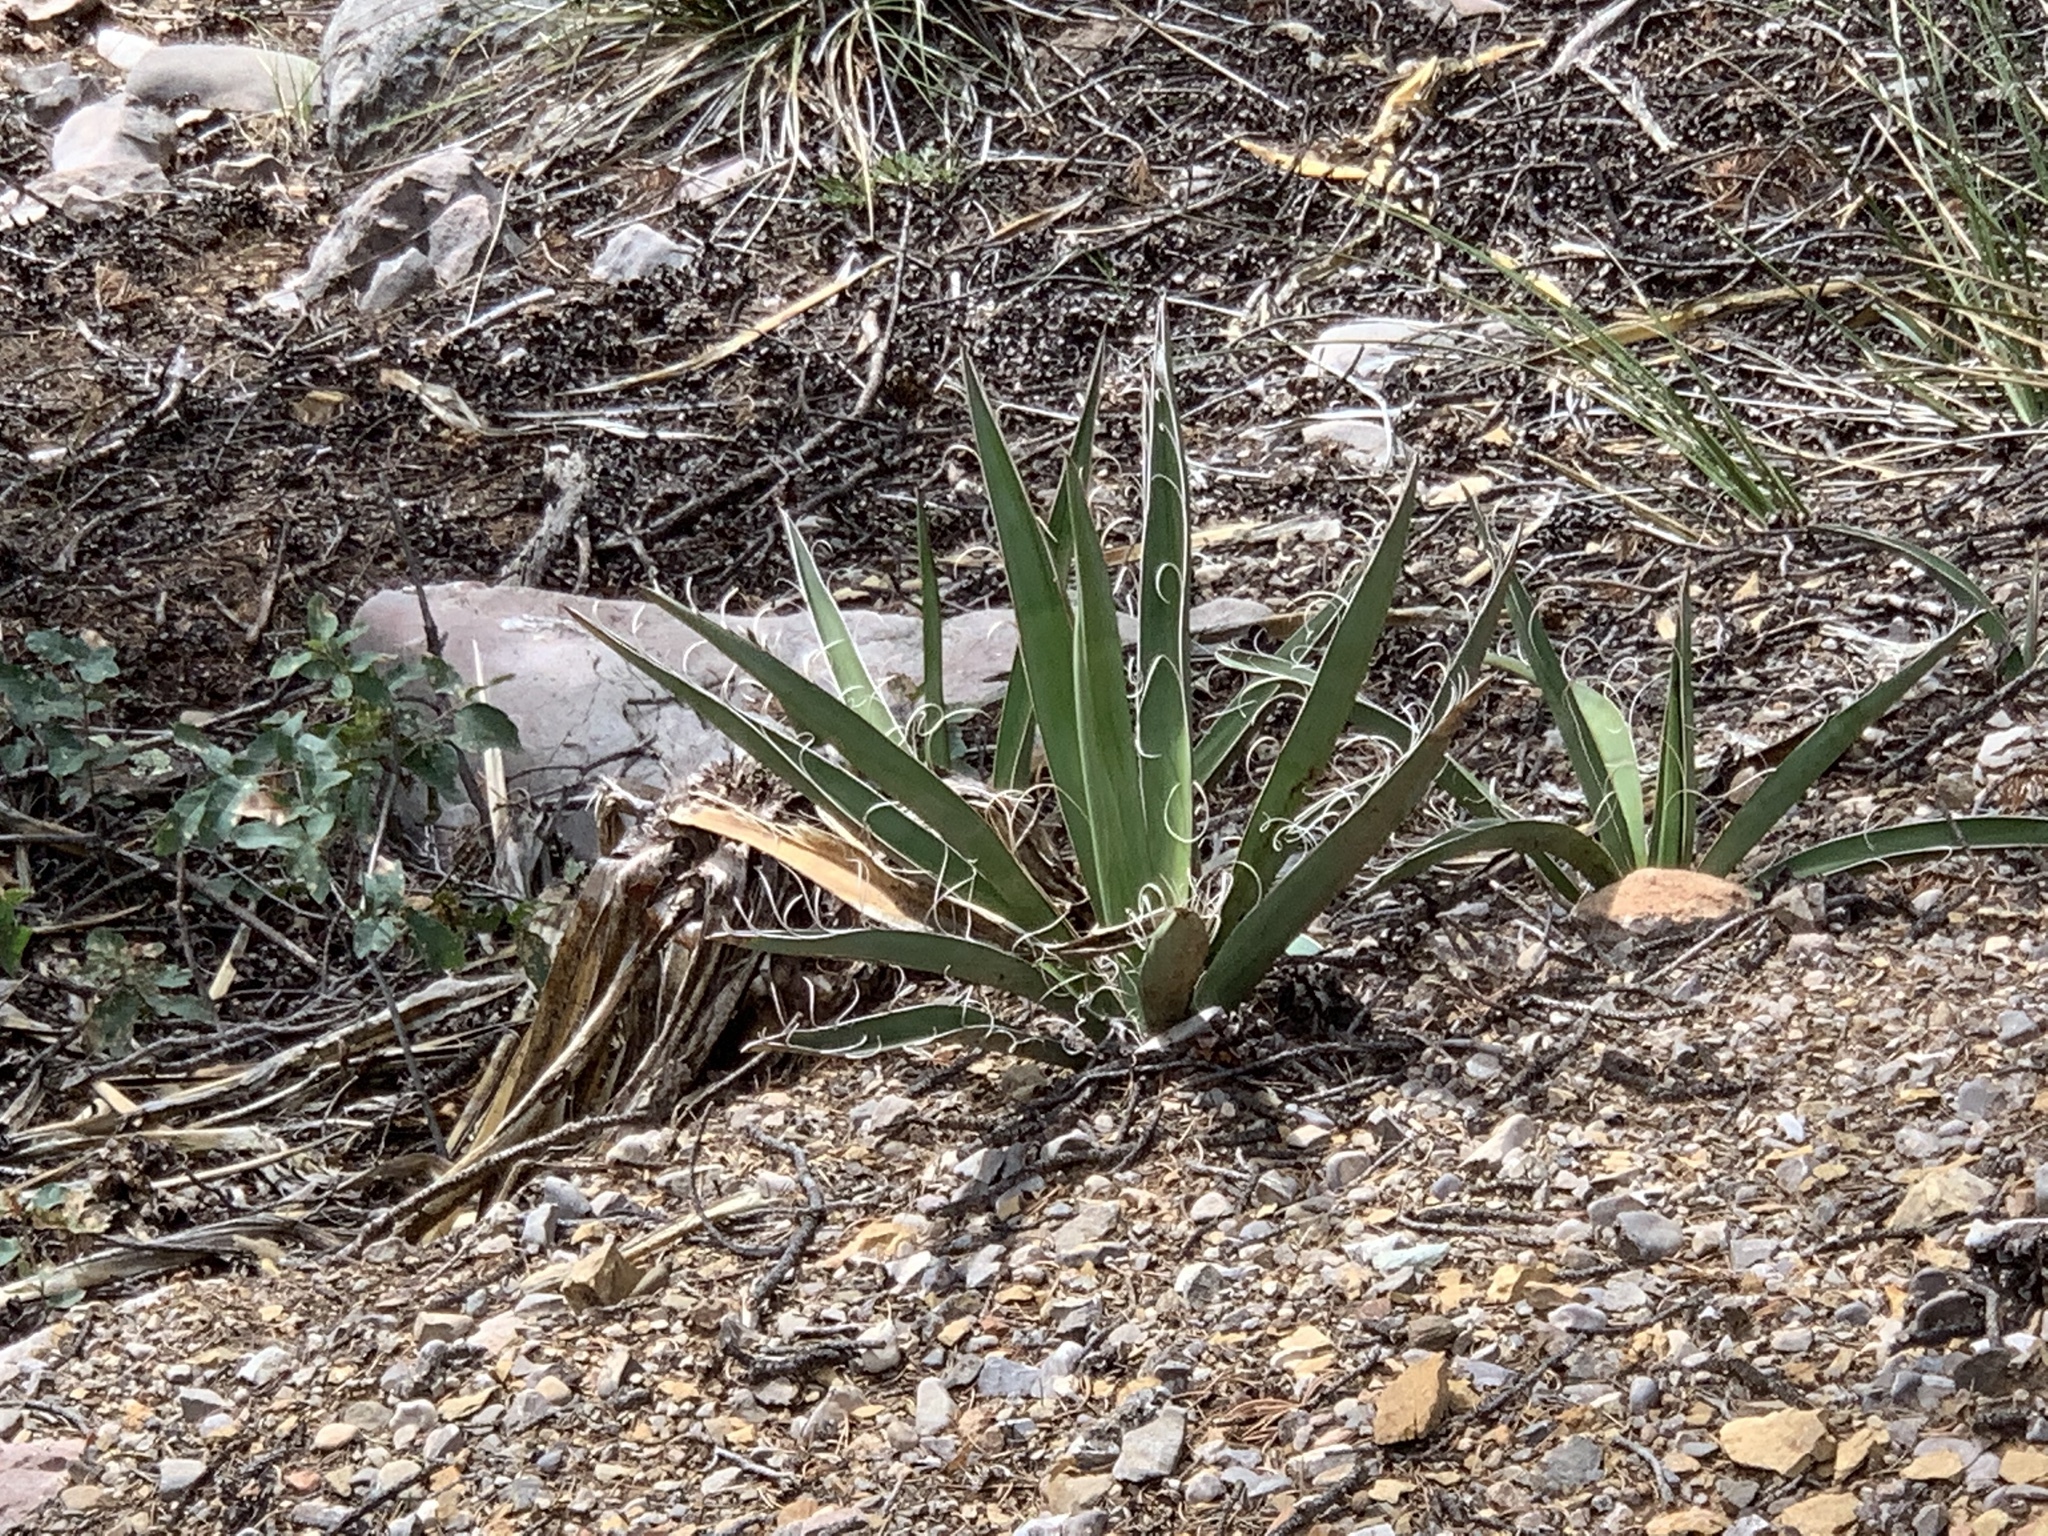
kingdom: Plantae
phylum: Tracheophyta
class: Liliopsida
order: Asparagales
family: Asparagaceae
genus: Yucca
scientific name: Yucca baccata
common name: Banana yucca
